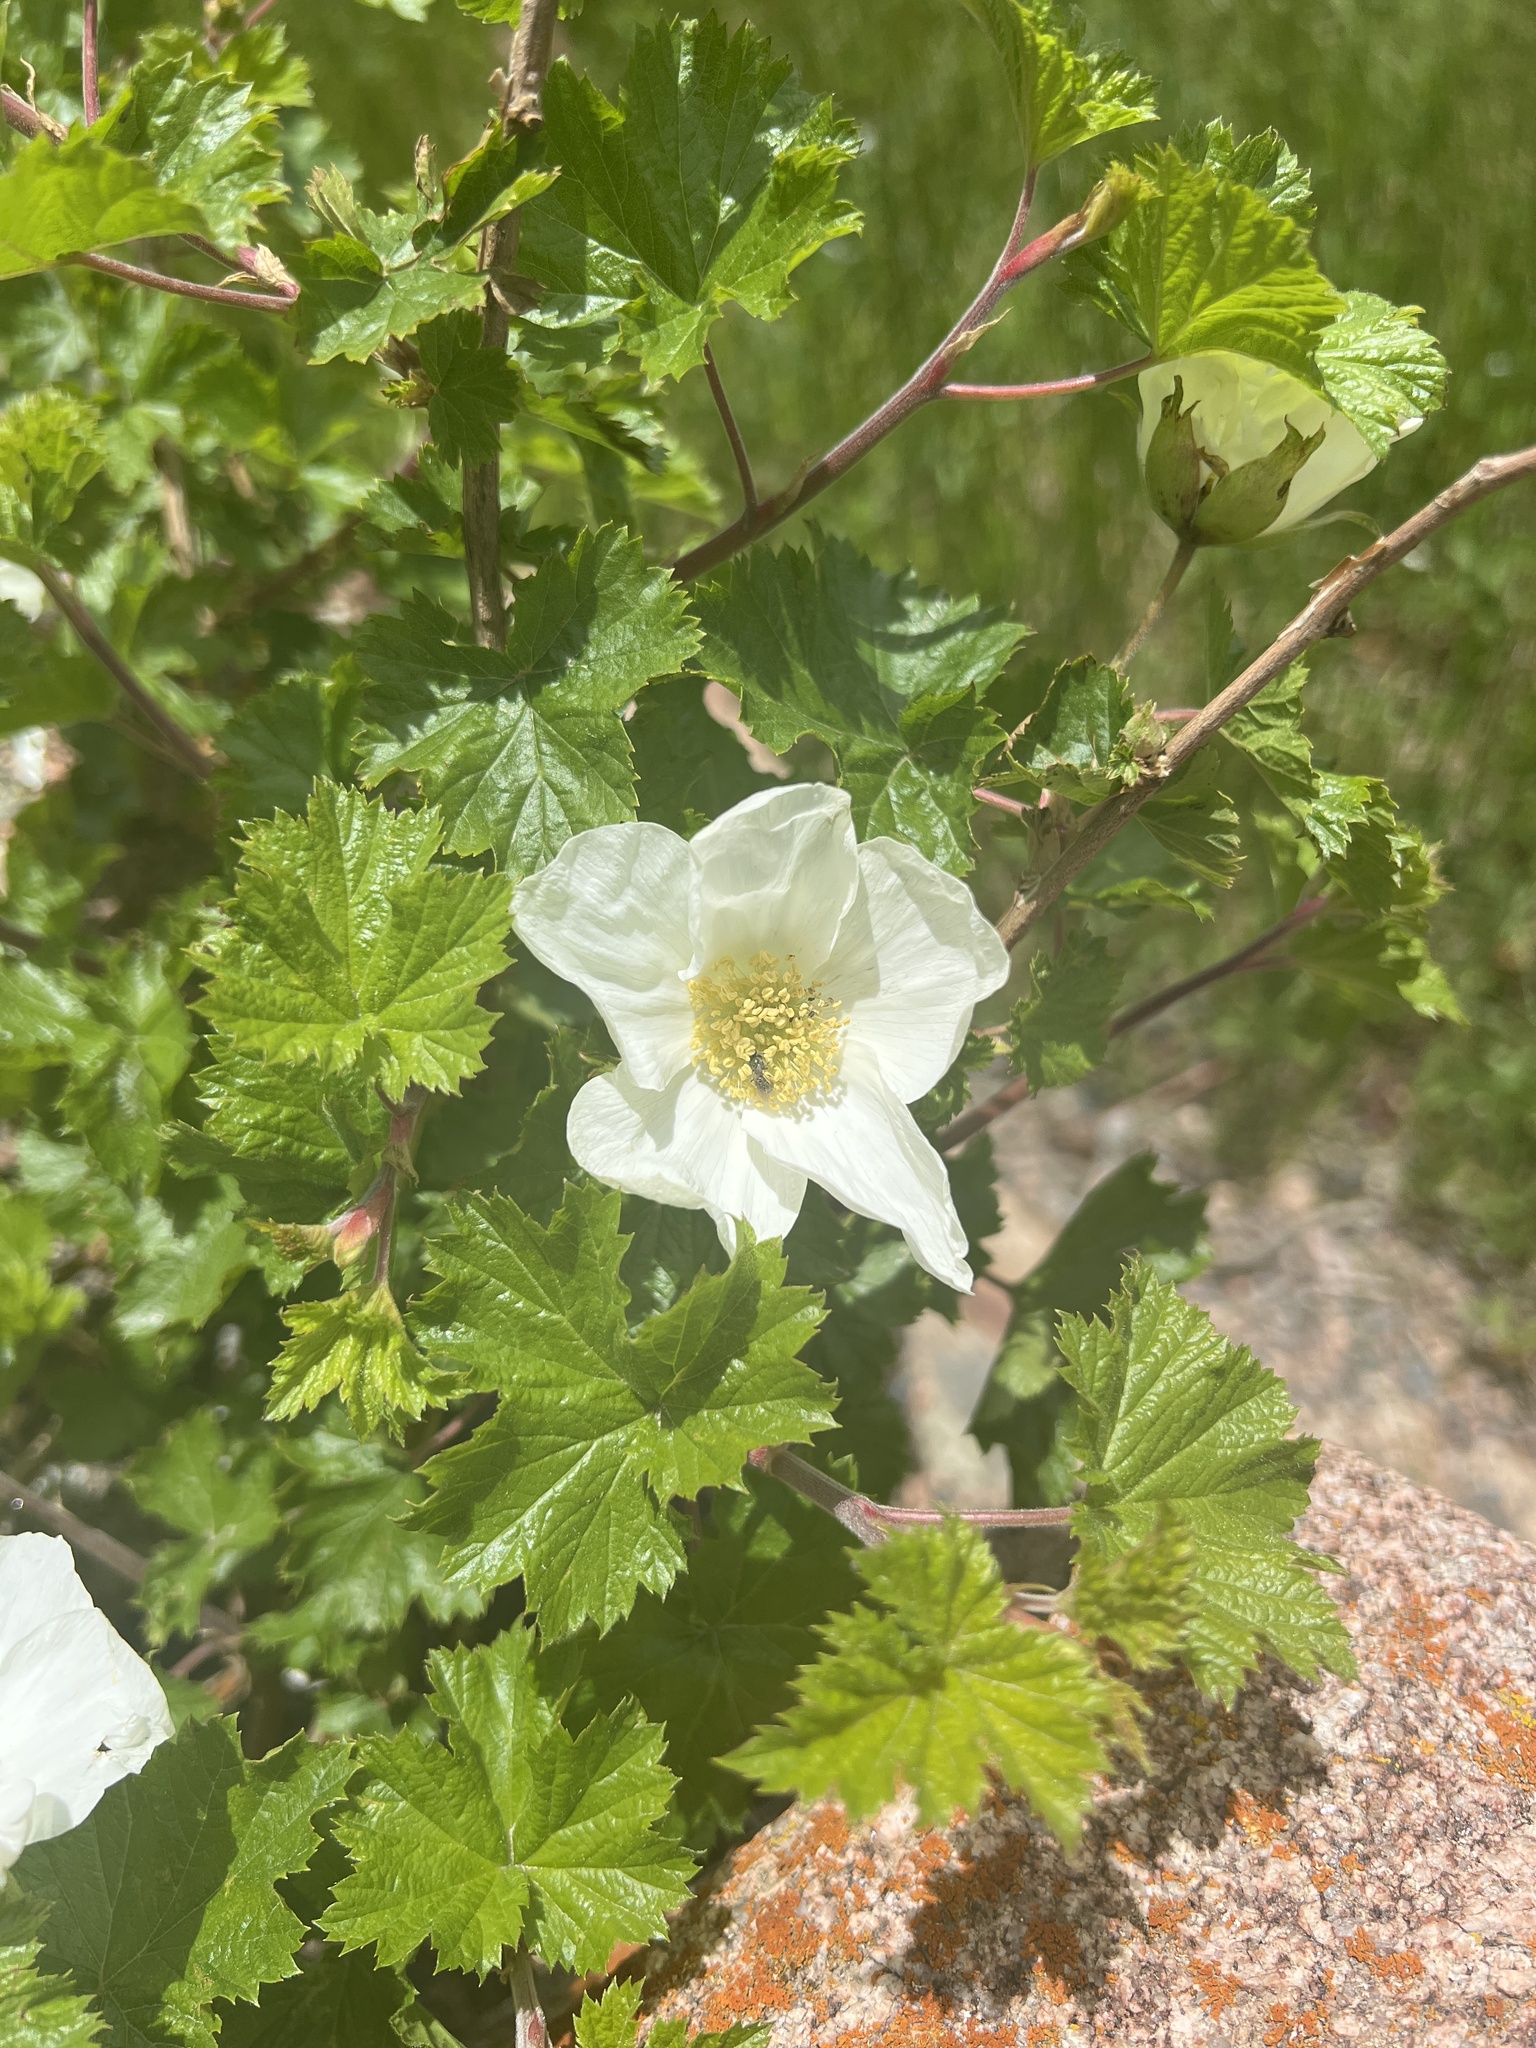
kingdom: Plantae
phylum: Tracheophyta
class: Magnoliopsida
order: Rosales
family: Rosaceae
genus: Rubus
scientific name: Rubus deliciosus
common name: Rocky mountain raspberry
